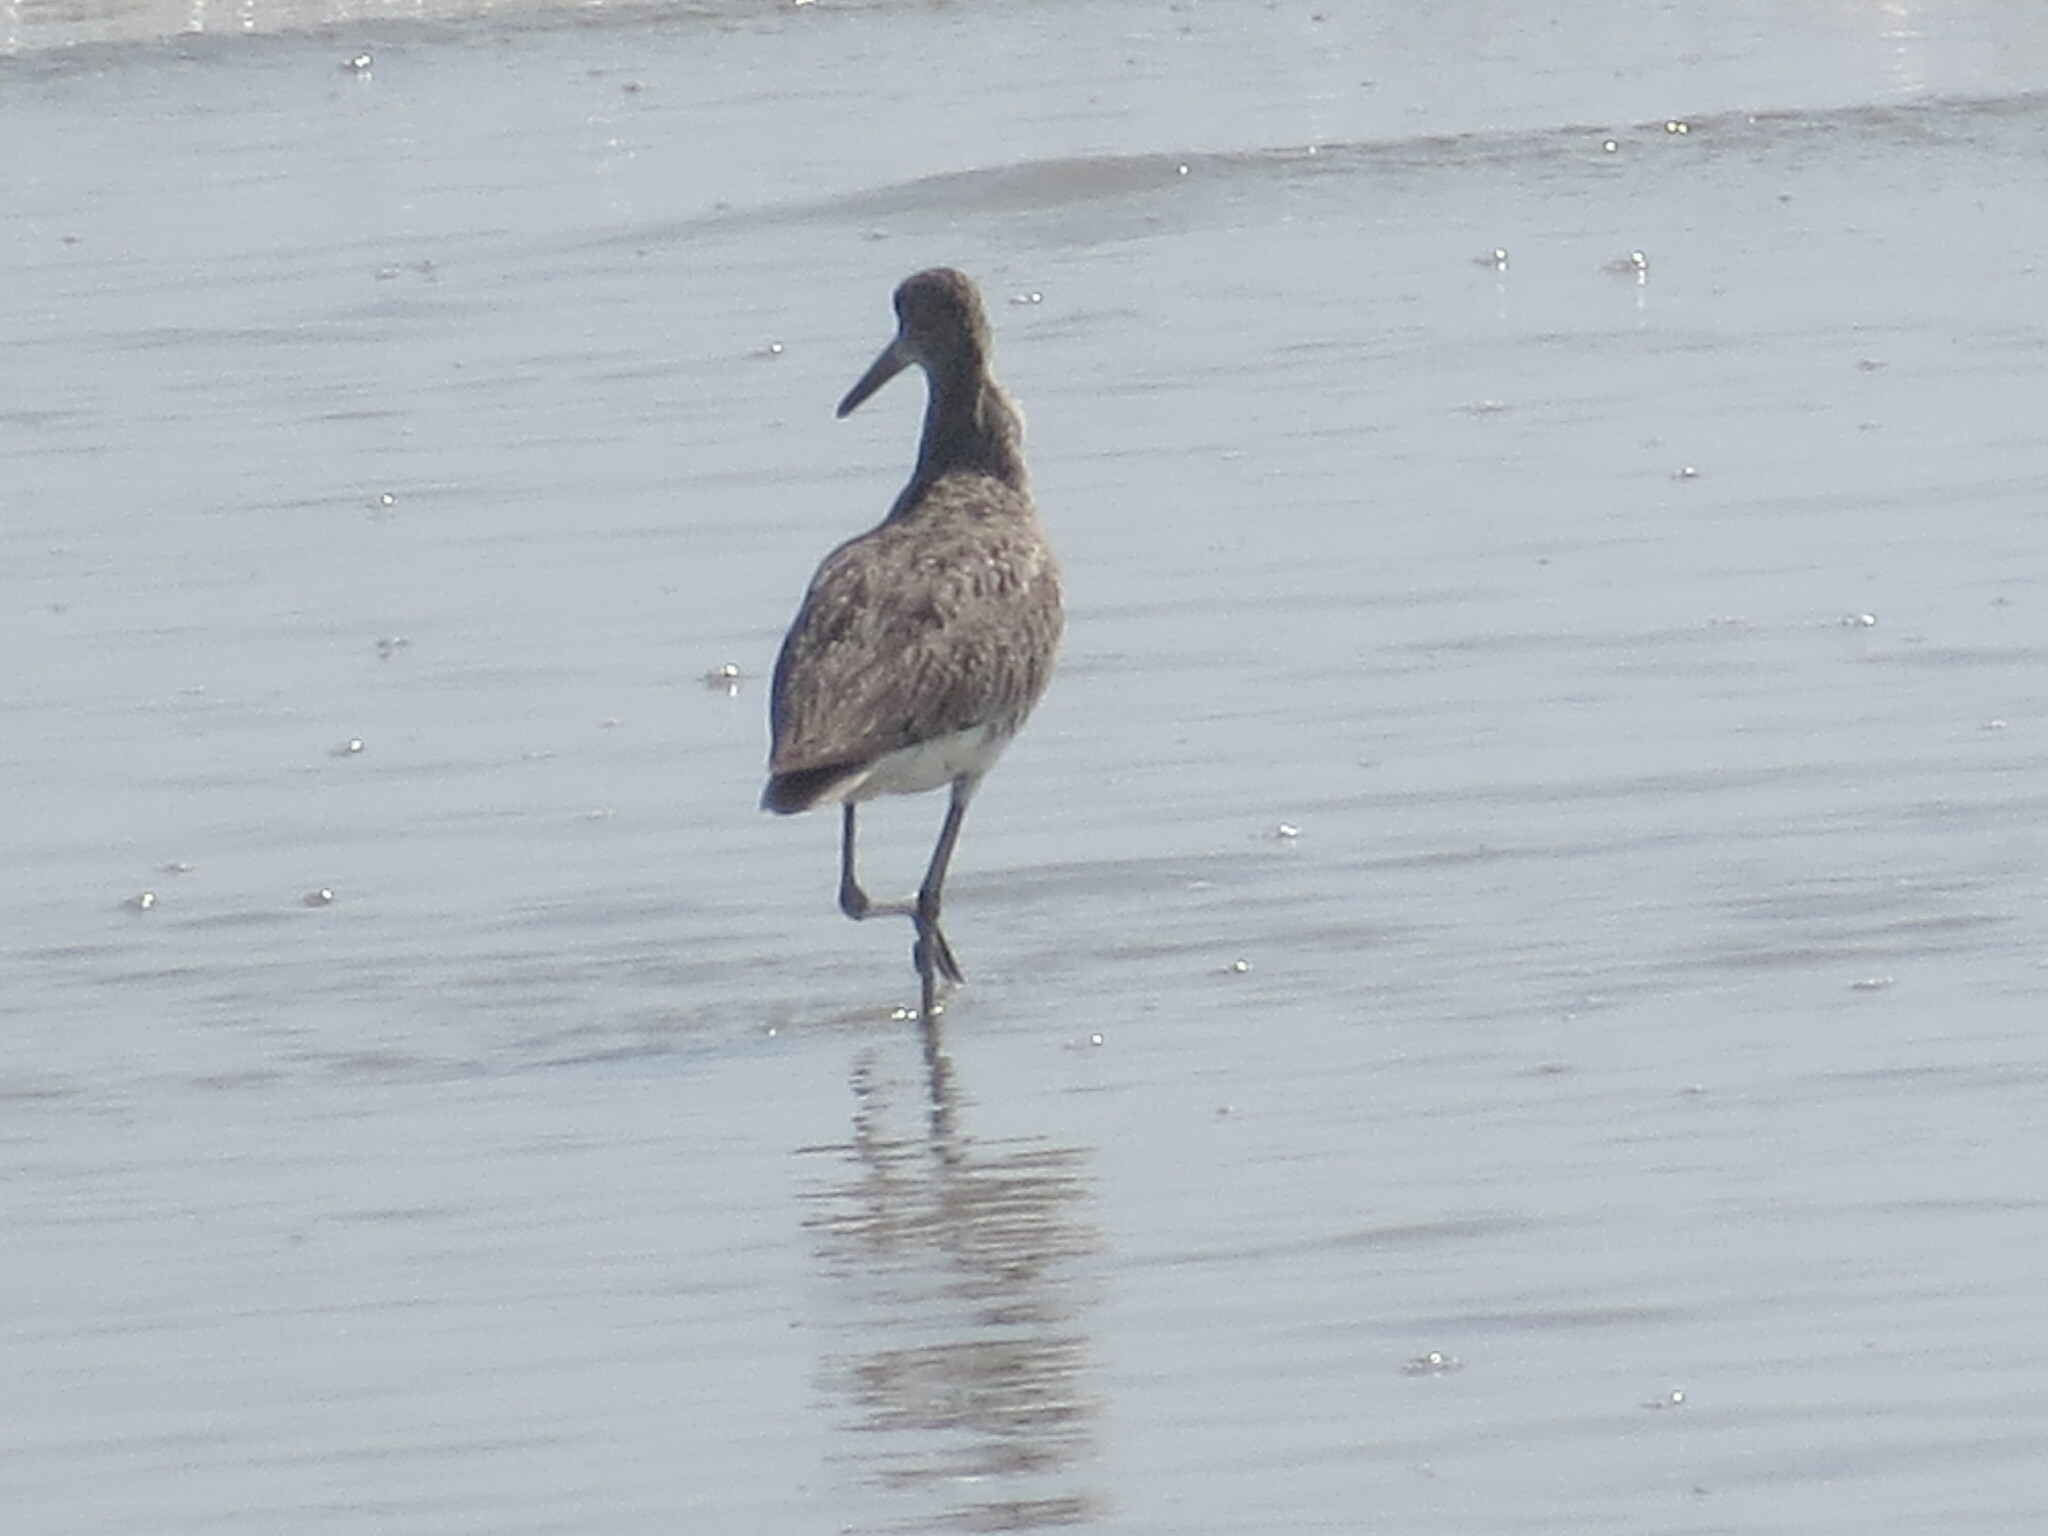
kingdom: Animalia
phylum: Chordata
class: Aves
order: Charadriiformes
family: Scolopacidae
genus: Tringa
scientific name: Tringa semipalmata
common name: Willet
